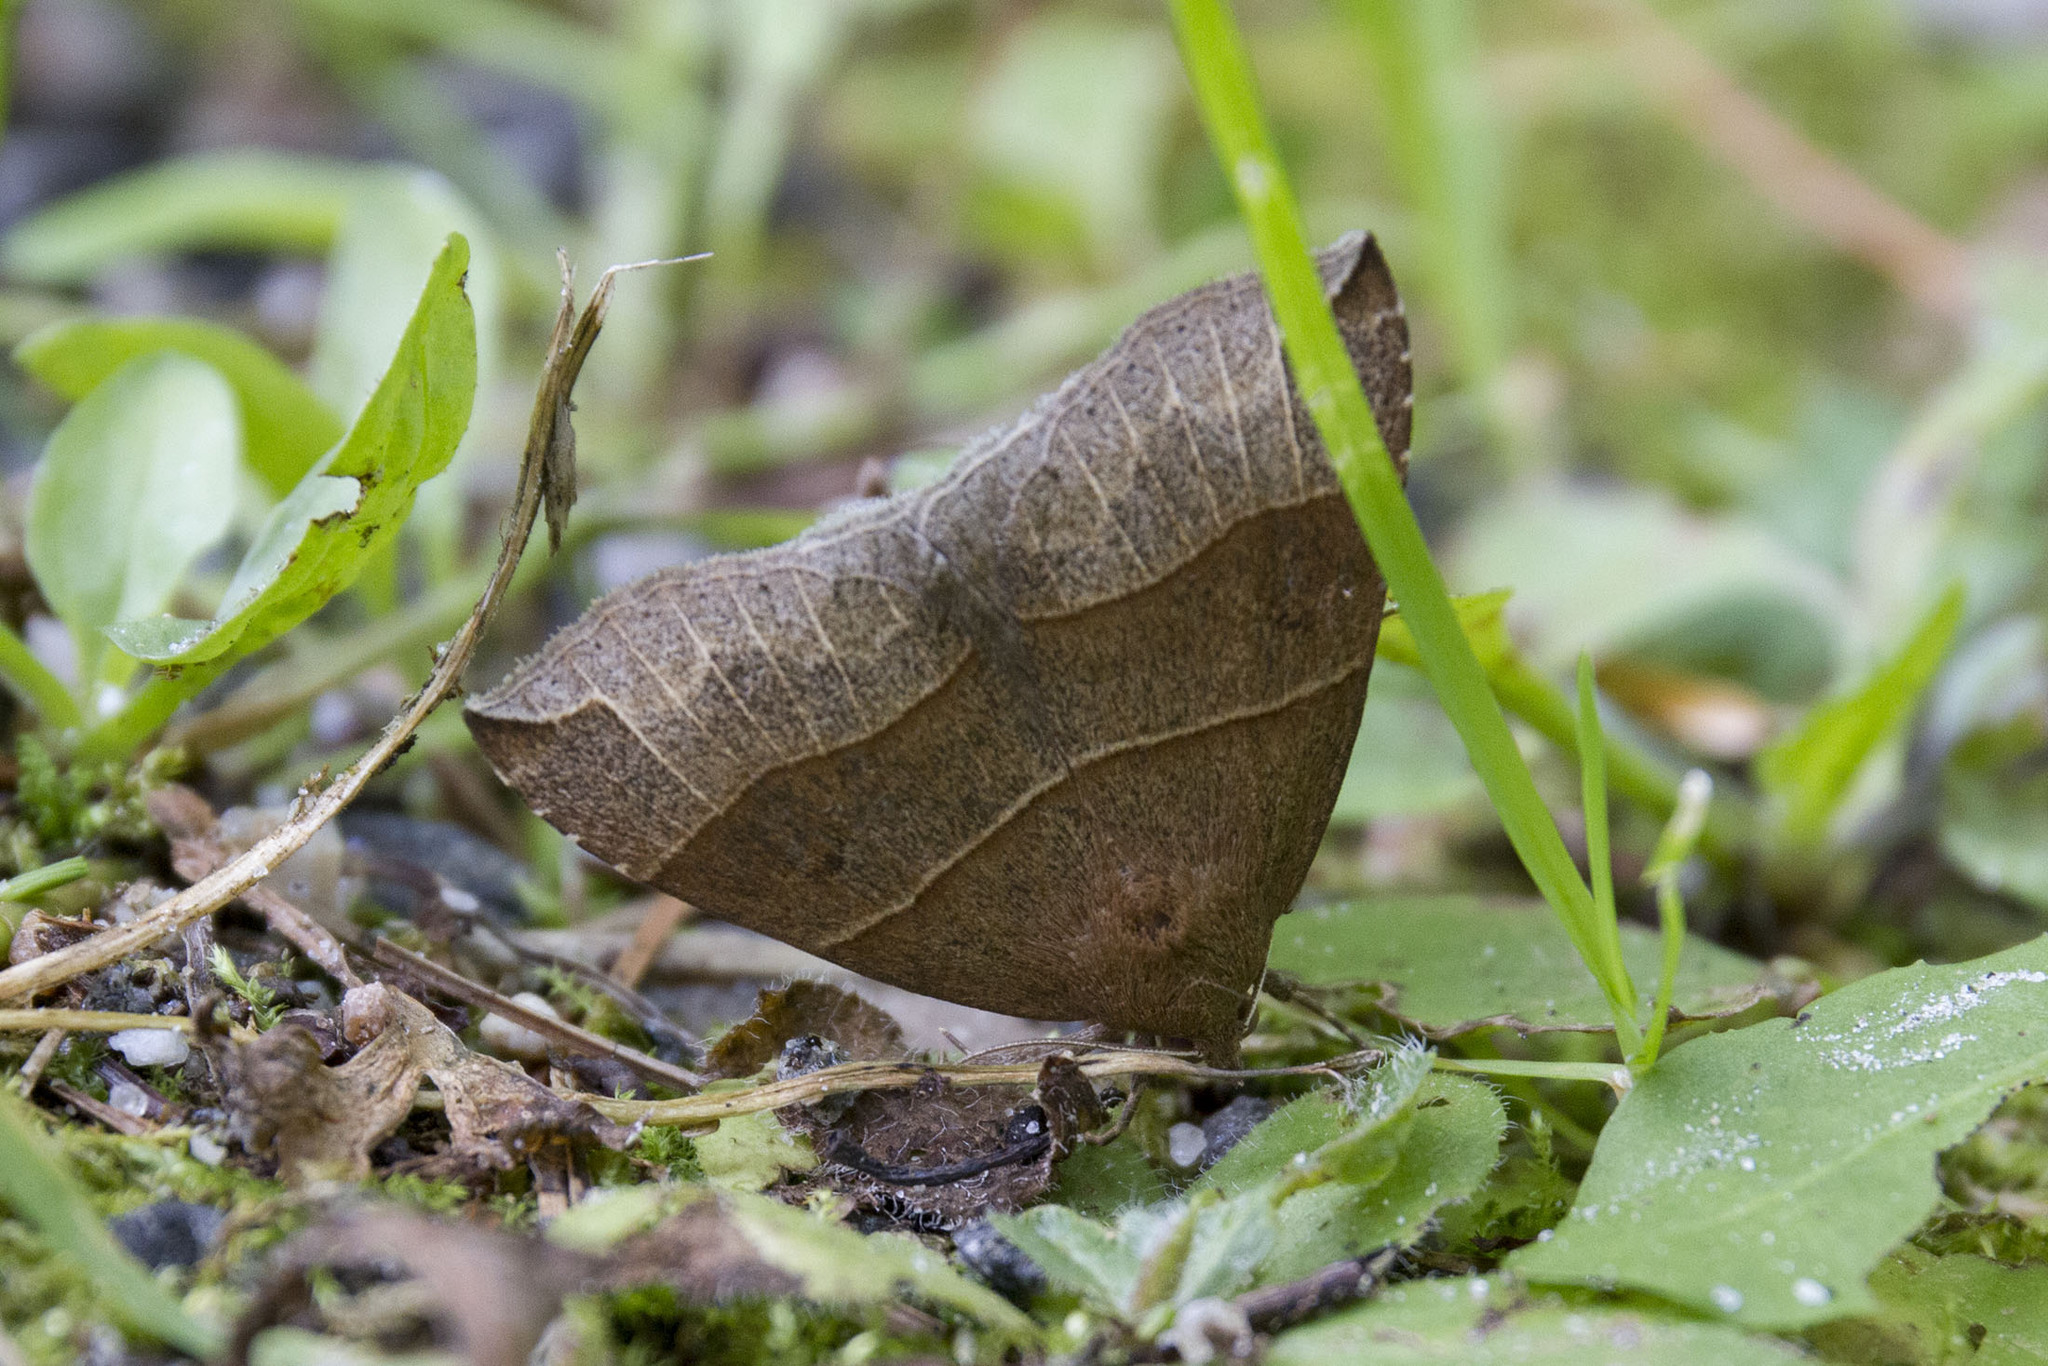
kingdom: Animalia
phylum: Arthropoda
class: Insecta
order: Lepidoptera
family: Erebidae
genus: Parallelia
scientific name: Parallelia bistriaris
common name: Maple looper moth
